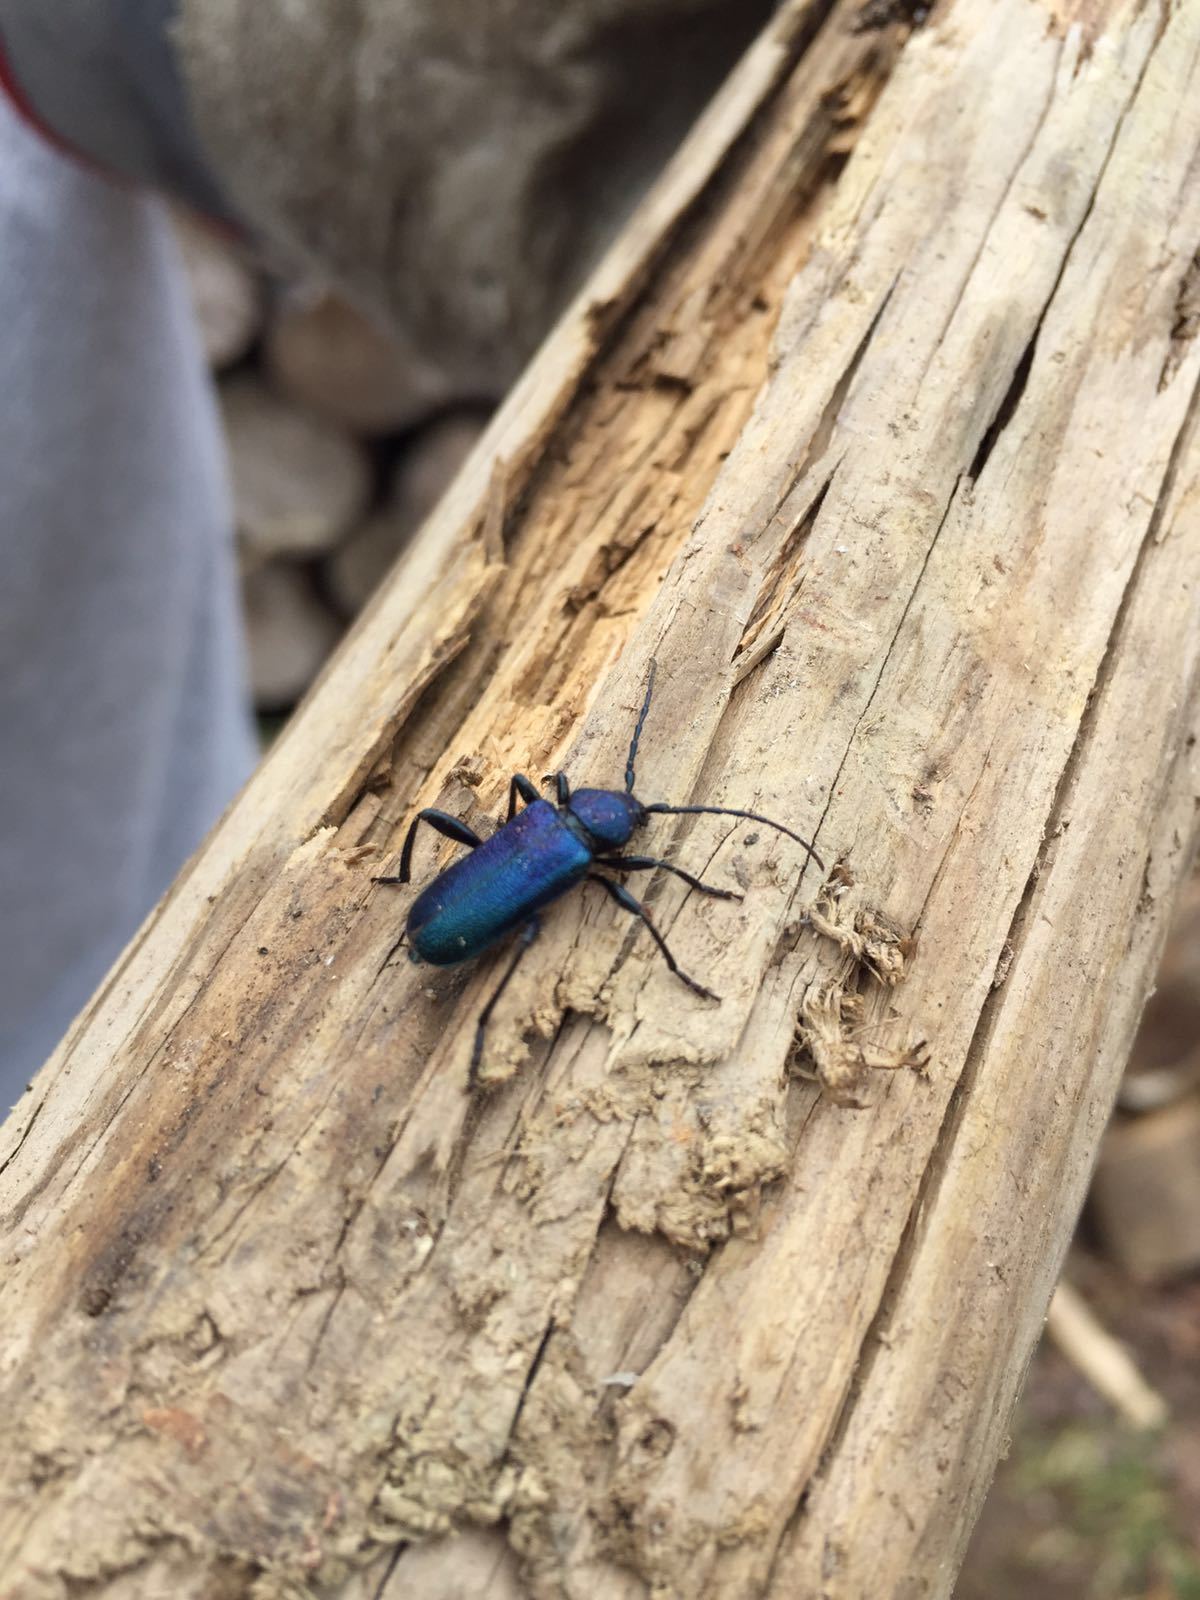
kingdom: Animalia
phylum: Arthropoda
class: Insecta
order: Coleoptera
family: Cerambycidae
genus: Callidium
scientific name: Callidium violaceum
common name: Violet tanbark beetle
